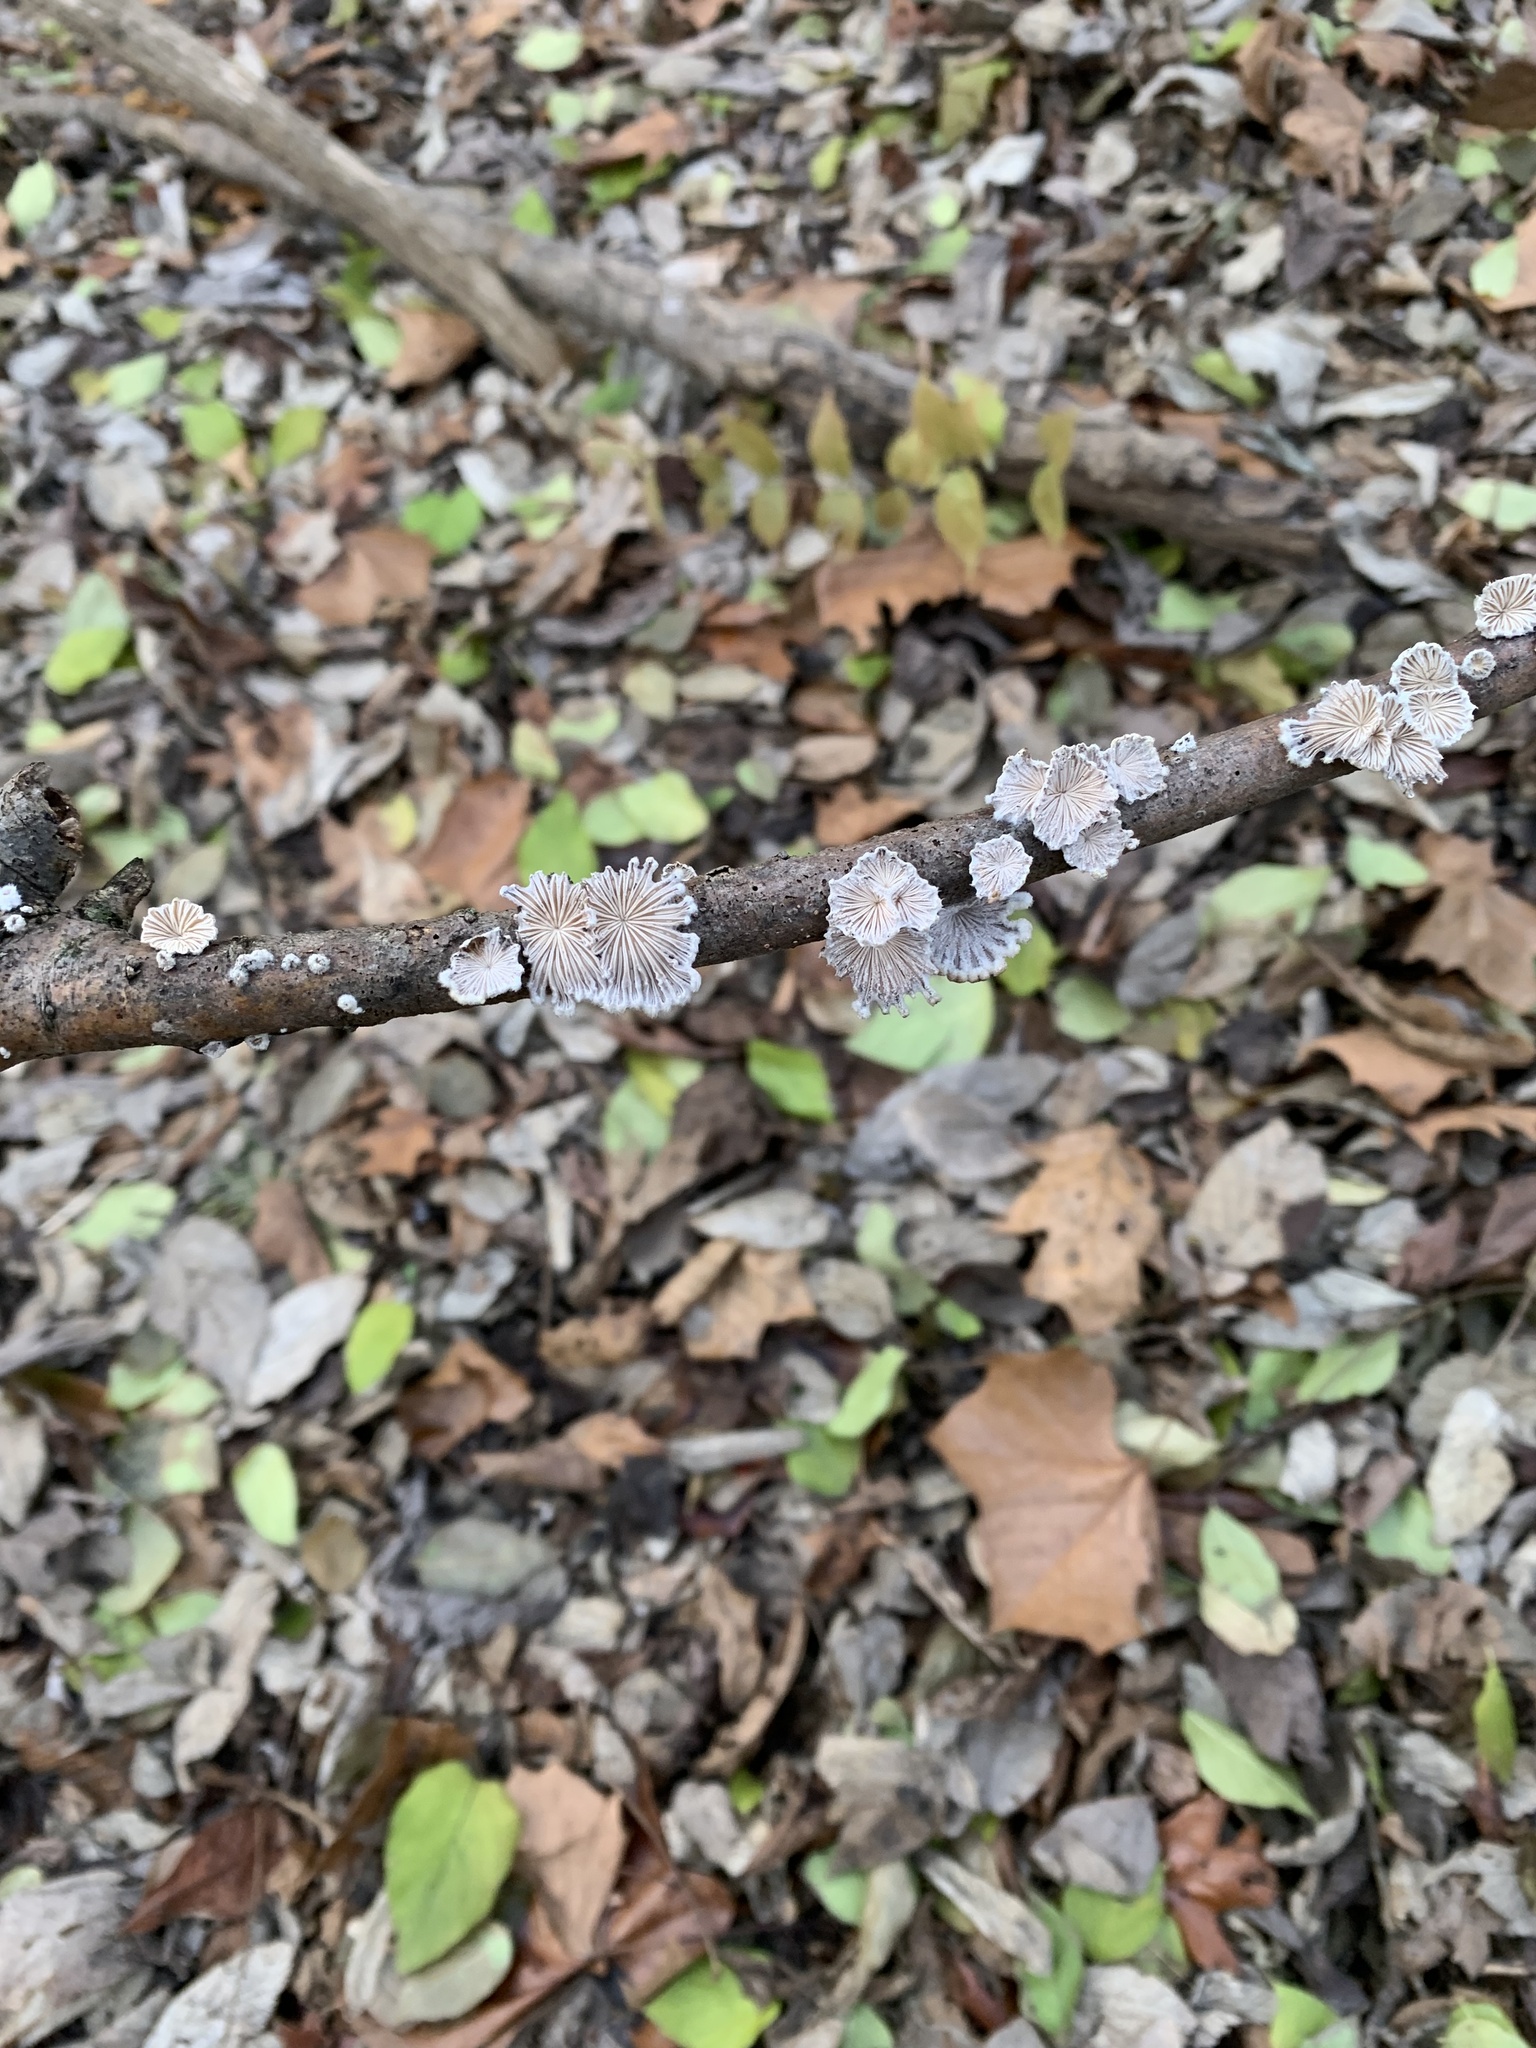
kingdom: Fungi
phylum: Basidiomycota
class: Agaricomycetes
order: Agaricales
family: Schizophyllaceae
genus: Schizophyllum
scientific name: Schizophyllum commune
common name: Common porecrust
